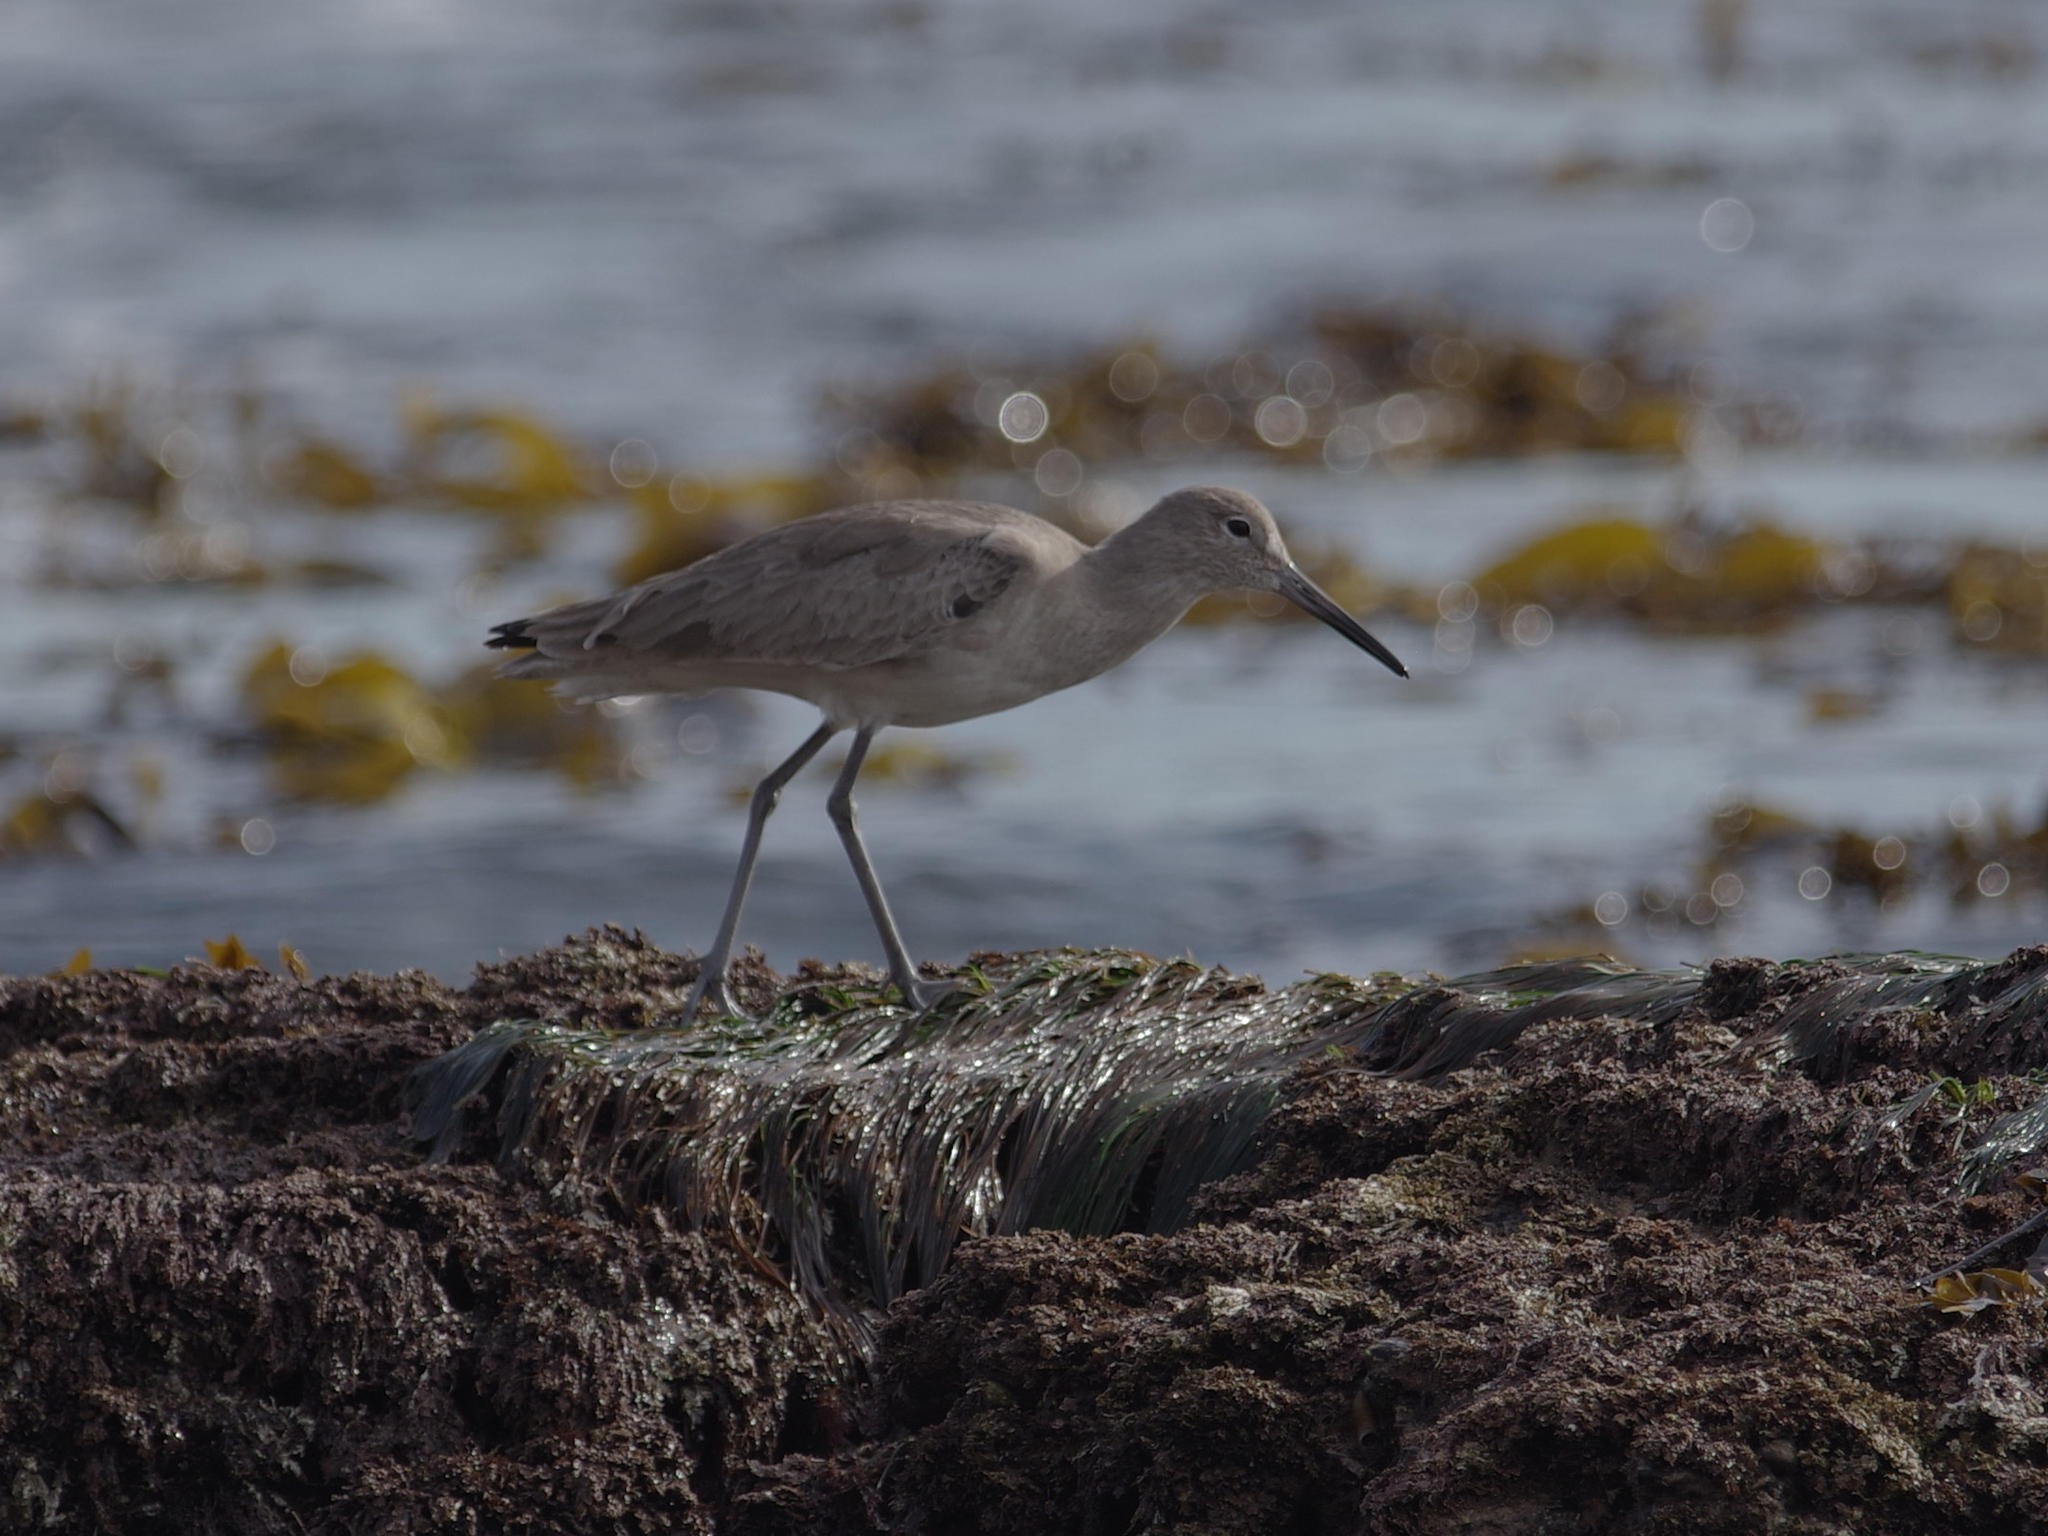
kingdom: Animalia
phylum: Chordata
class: Aves
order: Charadriiformes
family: Scolopacidae
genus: Tringa
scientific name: Tringa semipalmata
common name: Willet
